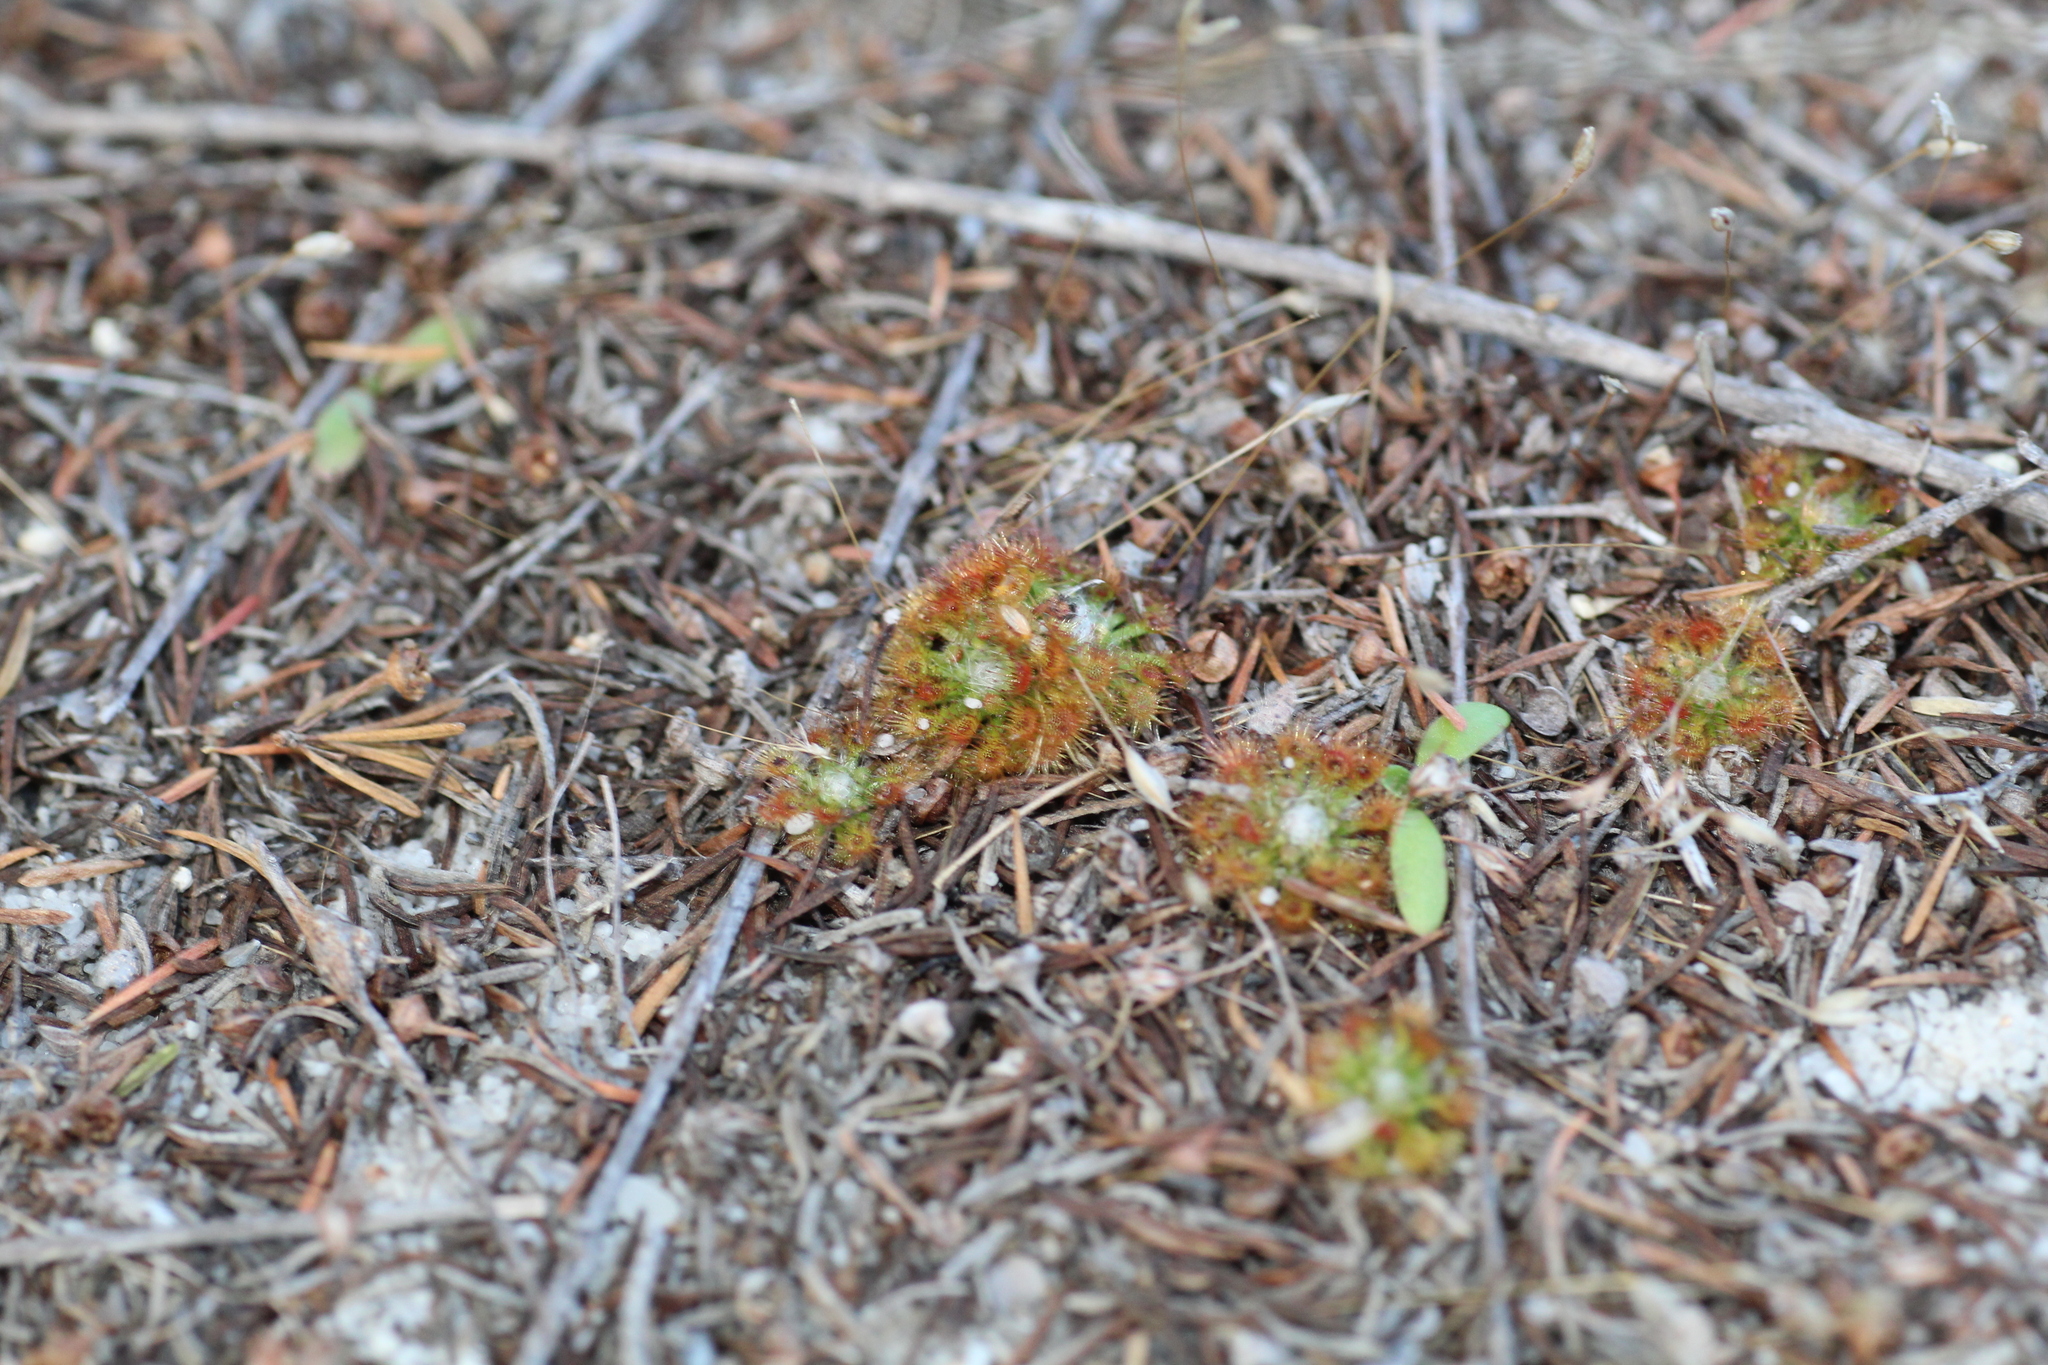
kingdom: Plantae
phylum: Tracheophyta
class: Magnoliopsida
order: Caryophyllales
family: Droseraceae
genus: Drosera
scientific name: Drosera patens
